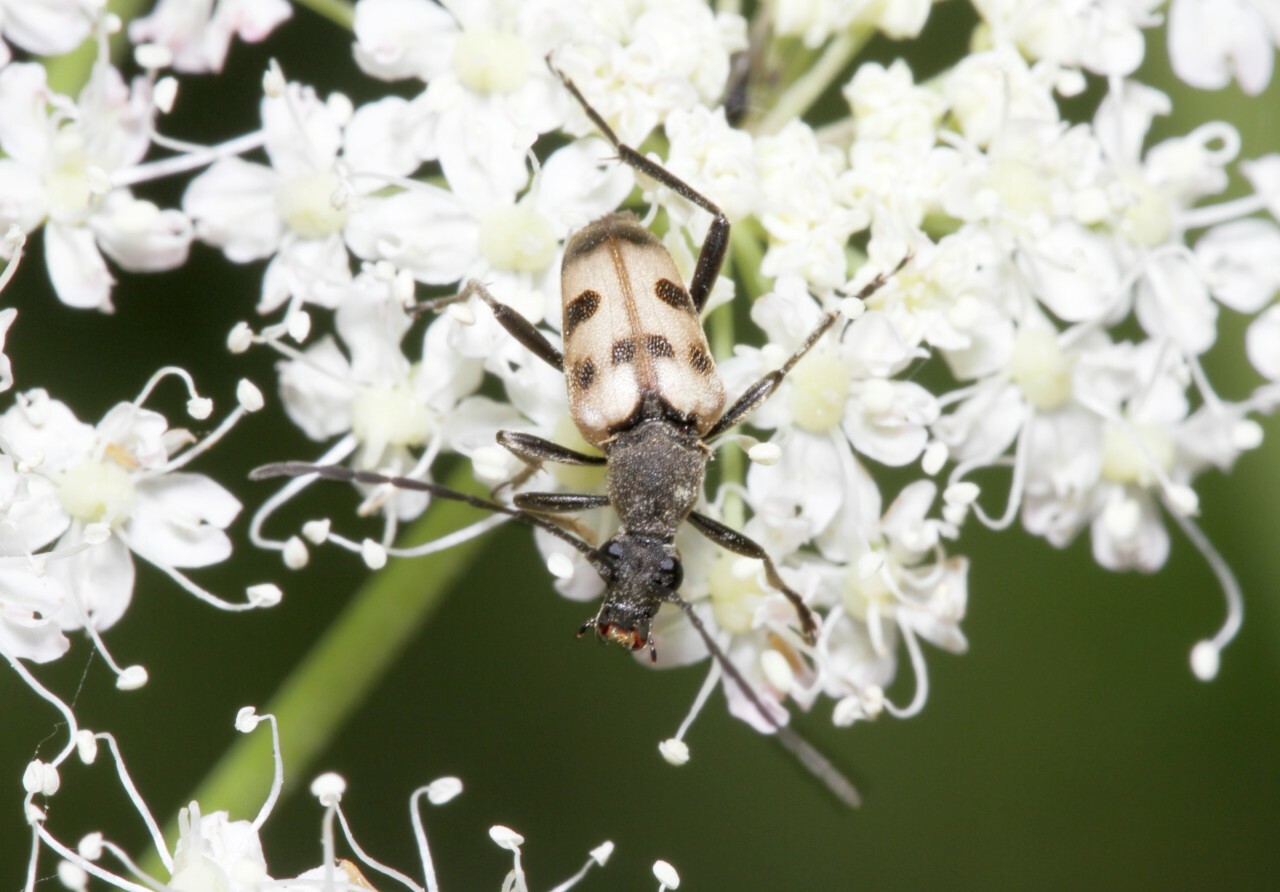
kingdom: Animalia
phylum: Arthropoda
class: Insecta
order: Coleoptera
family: Cerambycidae
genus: Pachytodes
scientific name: Pachytodes cerambyciformis
